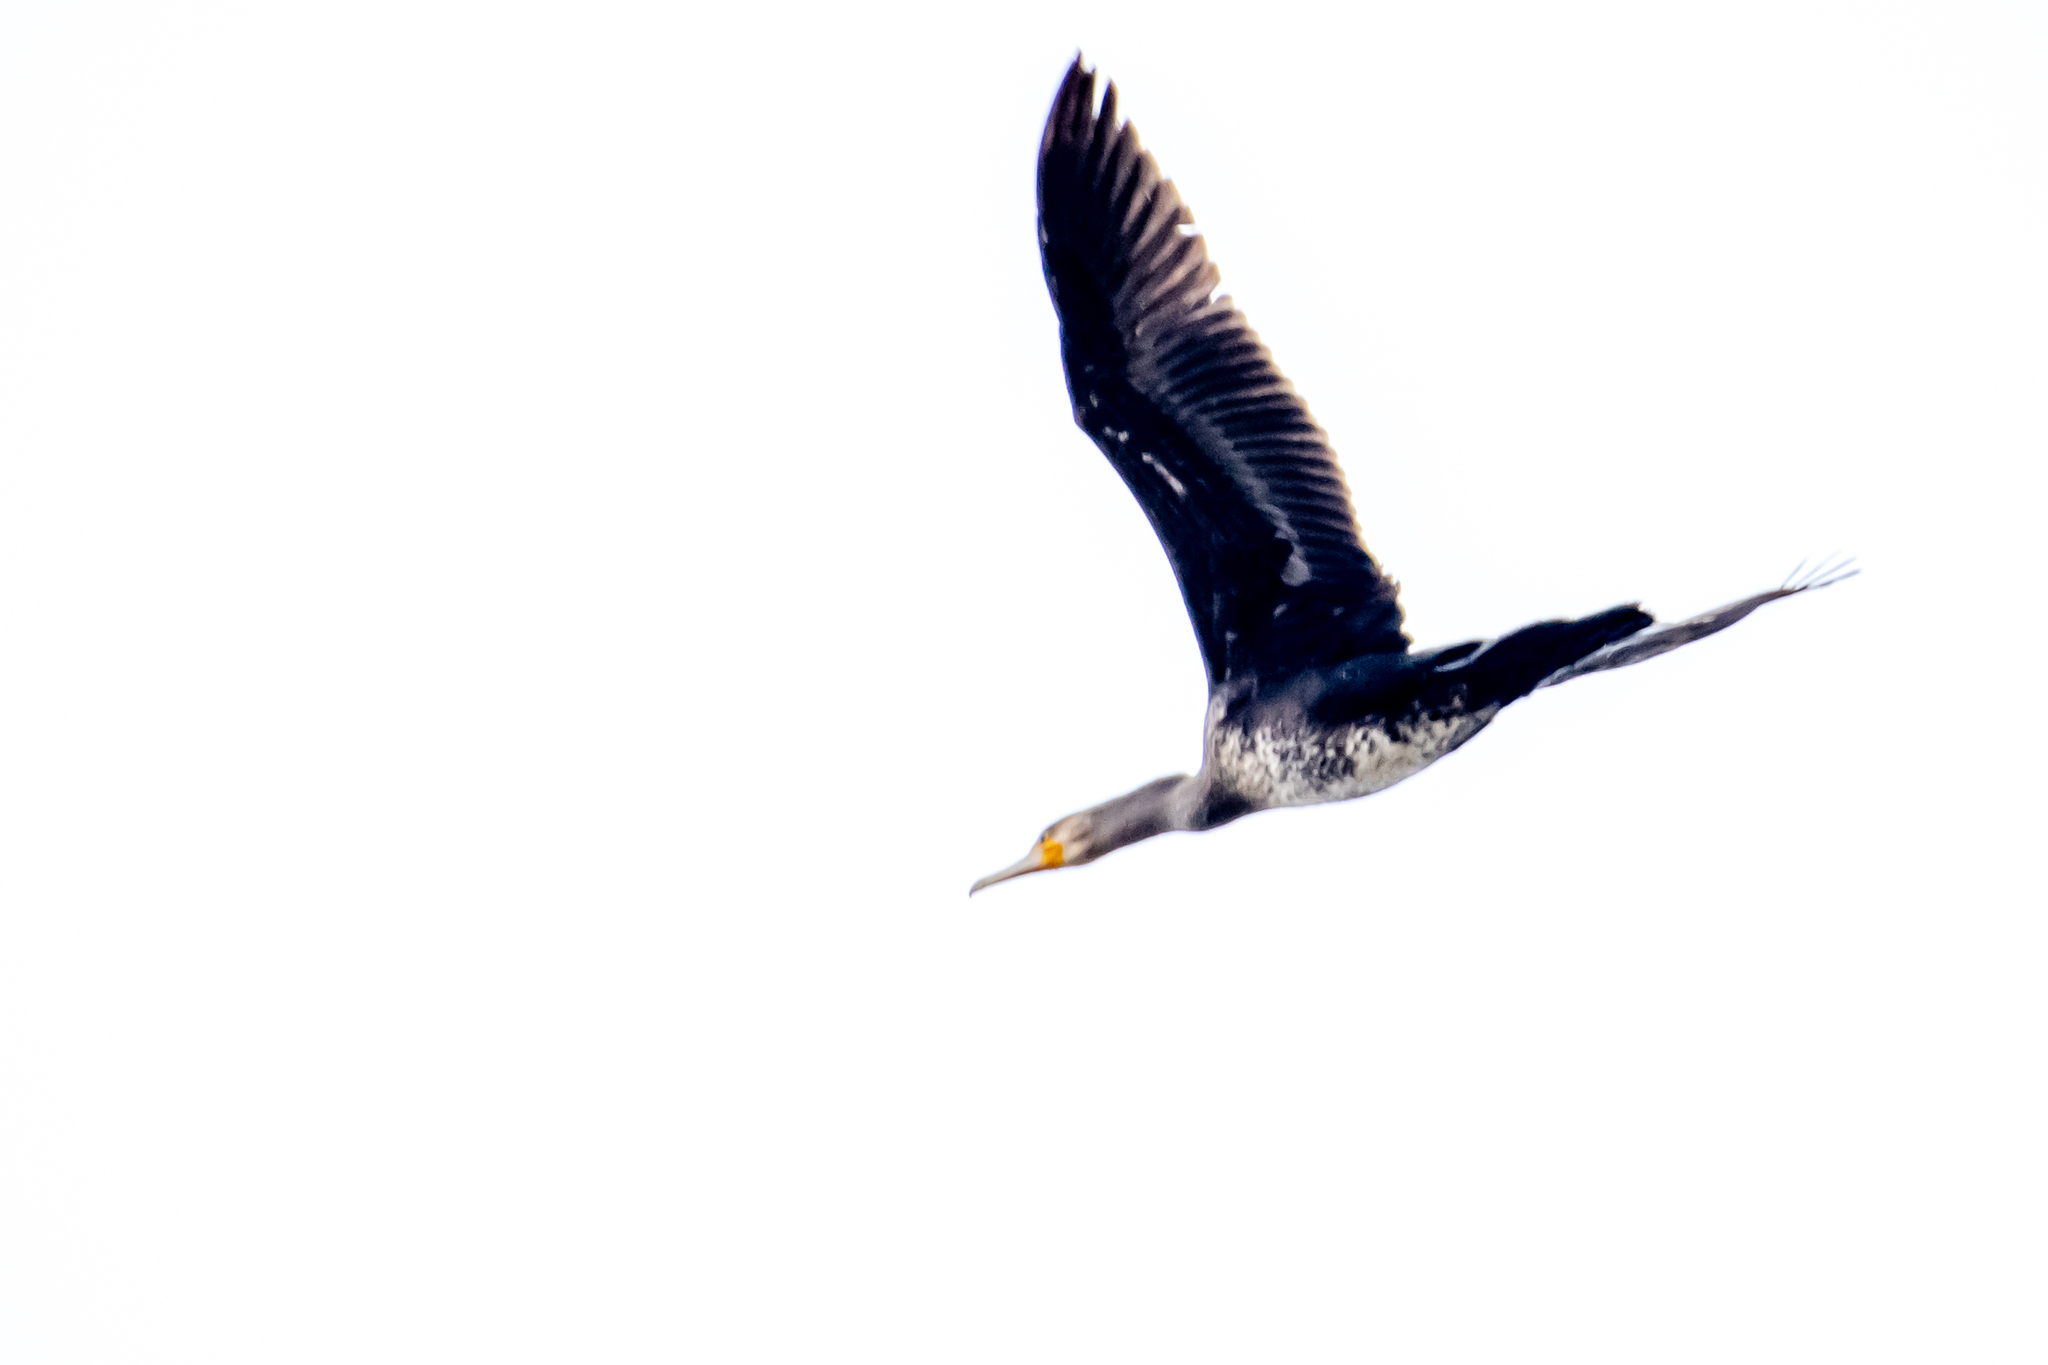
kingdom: Animalia
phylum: Chordata
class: Aves
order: Suliformes
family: Phalacrocoracidae
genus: Phalacrocorax
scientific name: Phalacrocorax carbo
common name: Great cormorant
